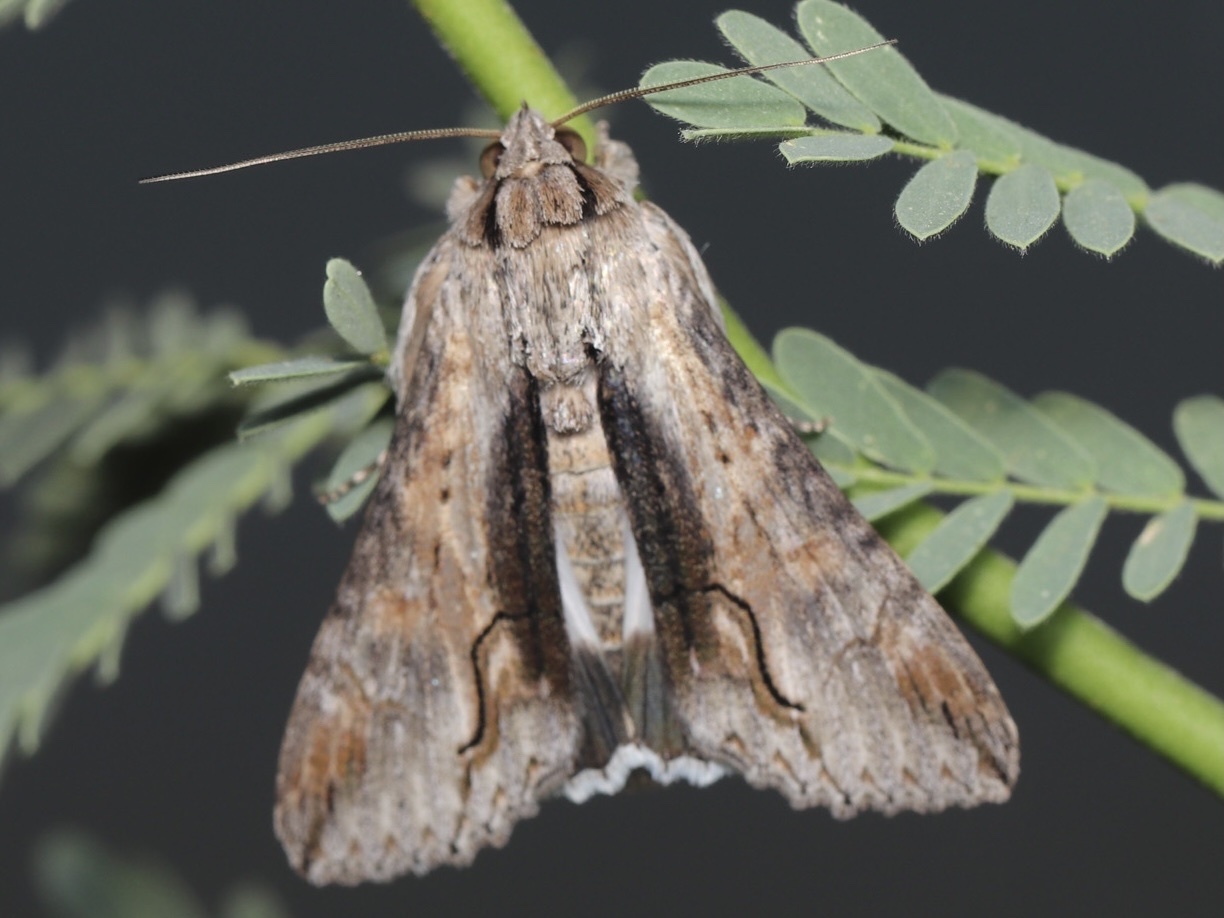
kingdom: Animalia
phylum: Arthropoda
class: Insecta
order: Lepidoptera
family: Erebidae
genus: Melipotis
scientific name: Melipotis acontioides
